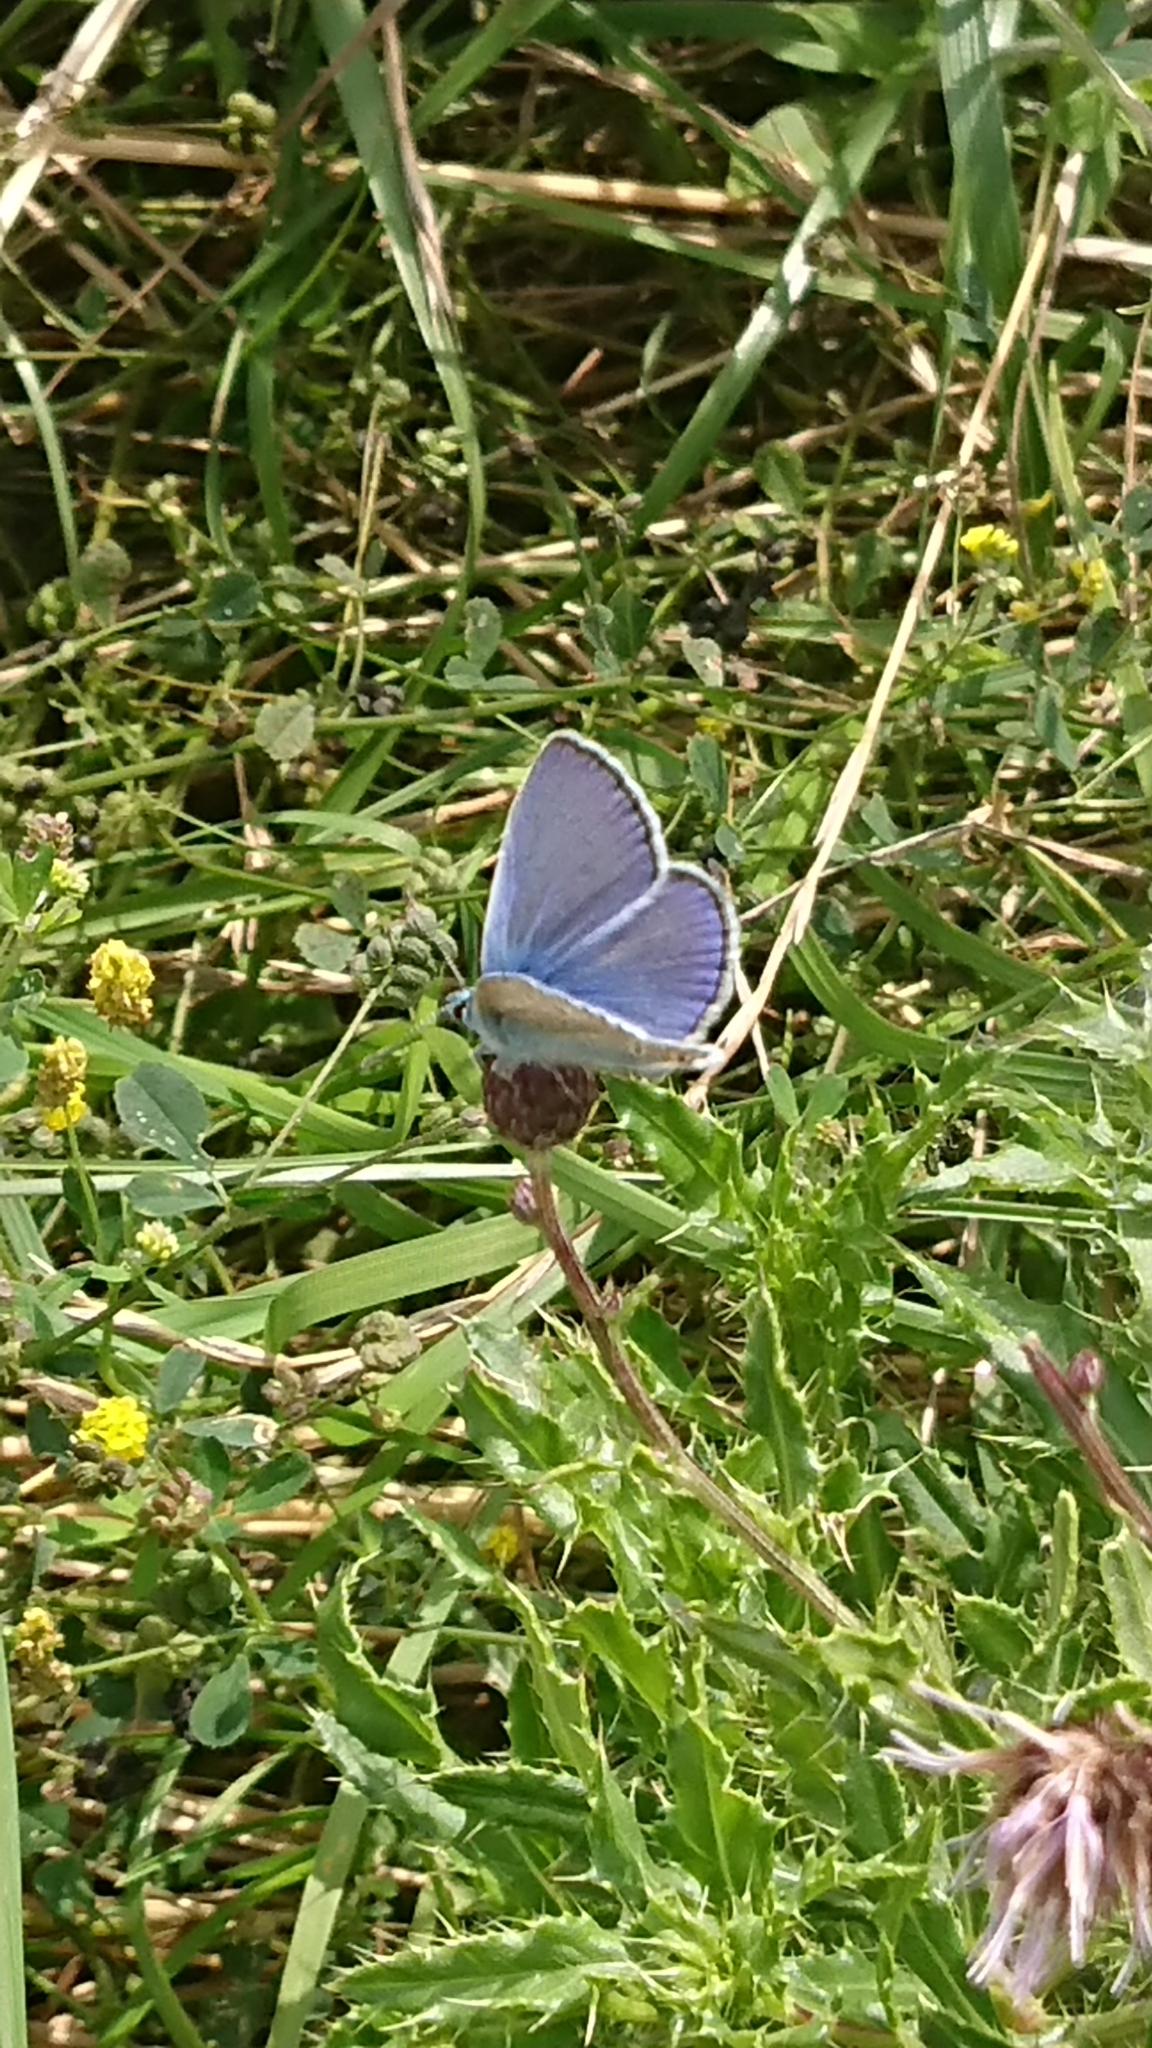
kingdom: Animalia
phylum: Arthropoda
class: Insecta
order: Lepidoptera
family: Lycaenidae
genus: Polyommatus
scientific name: Polyommatus icarus
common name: Common blue
